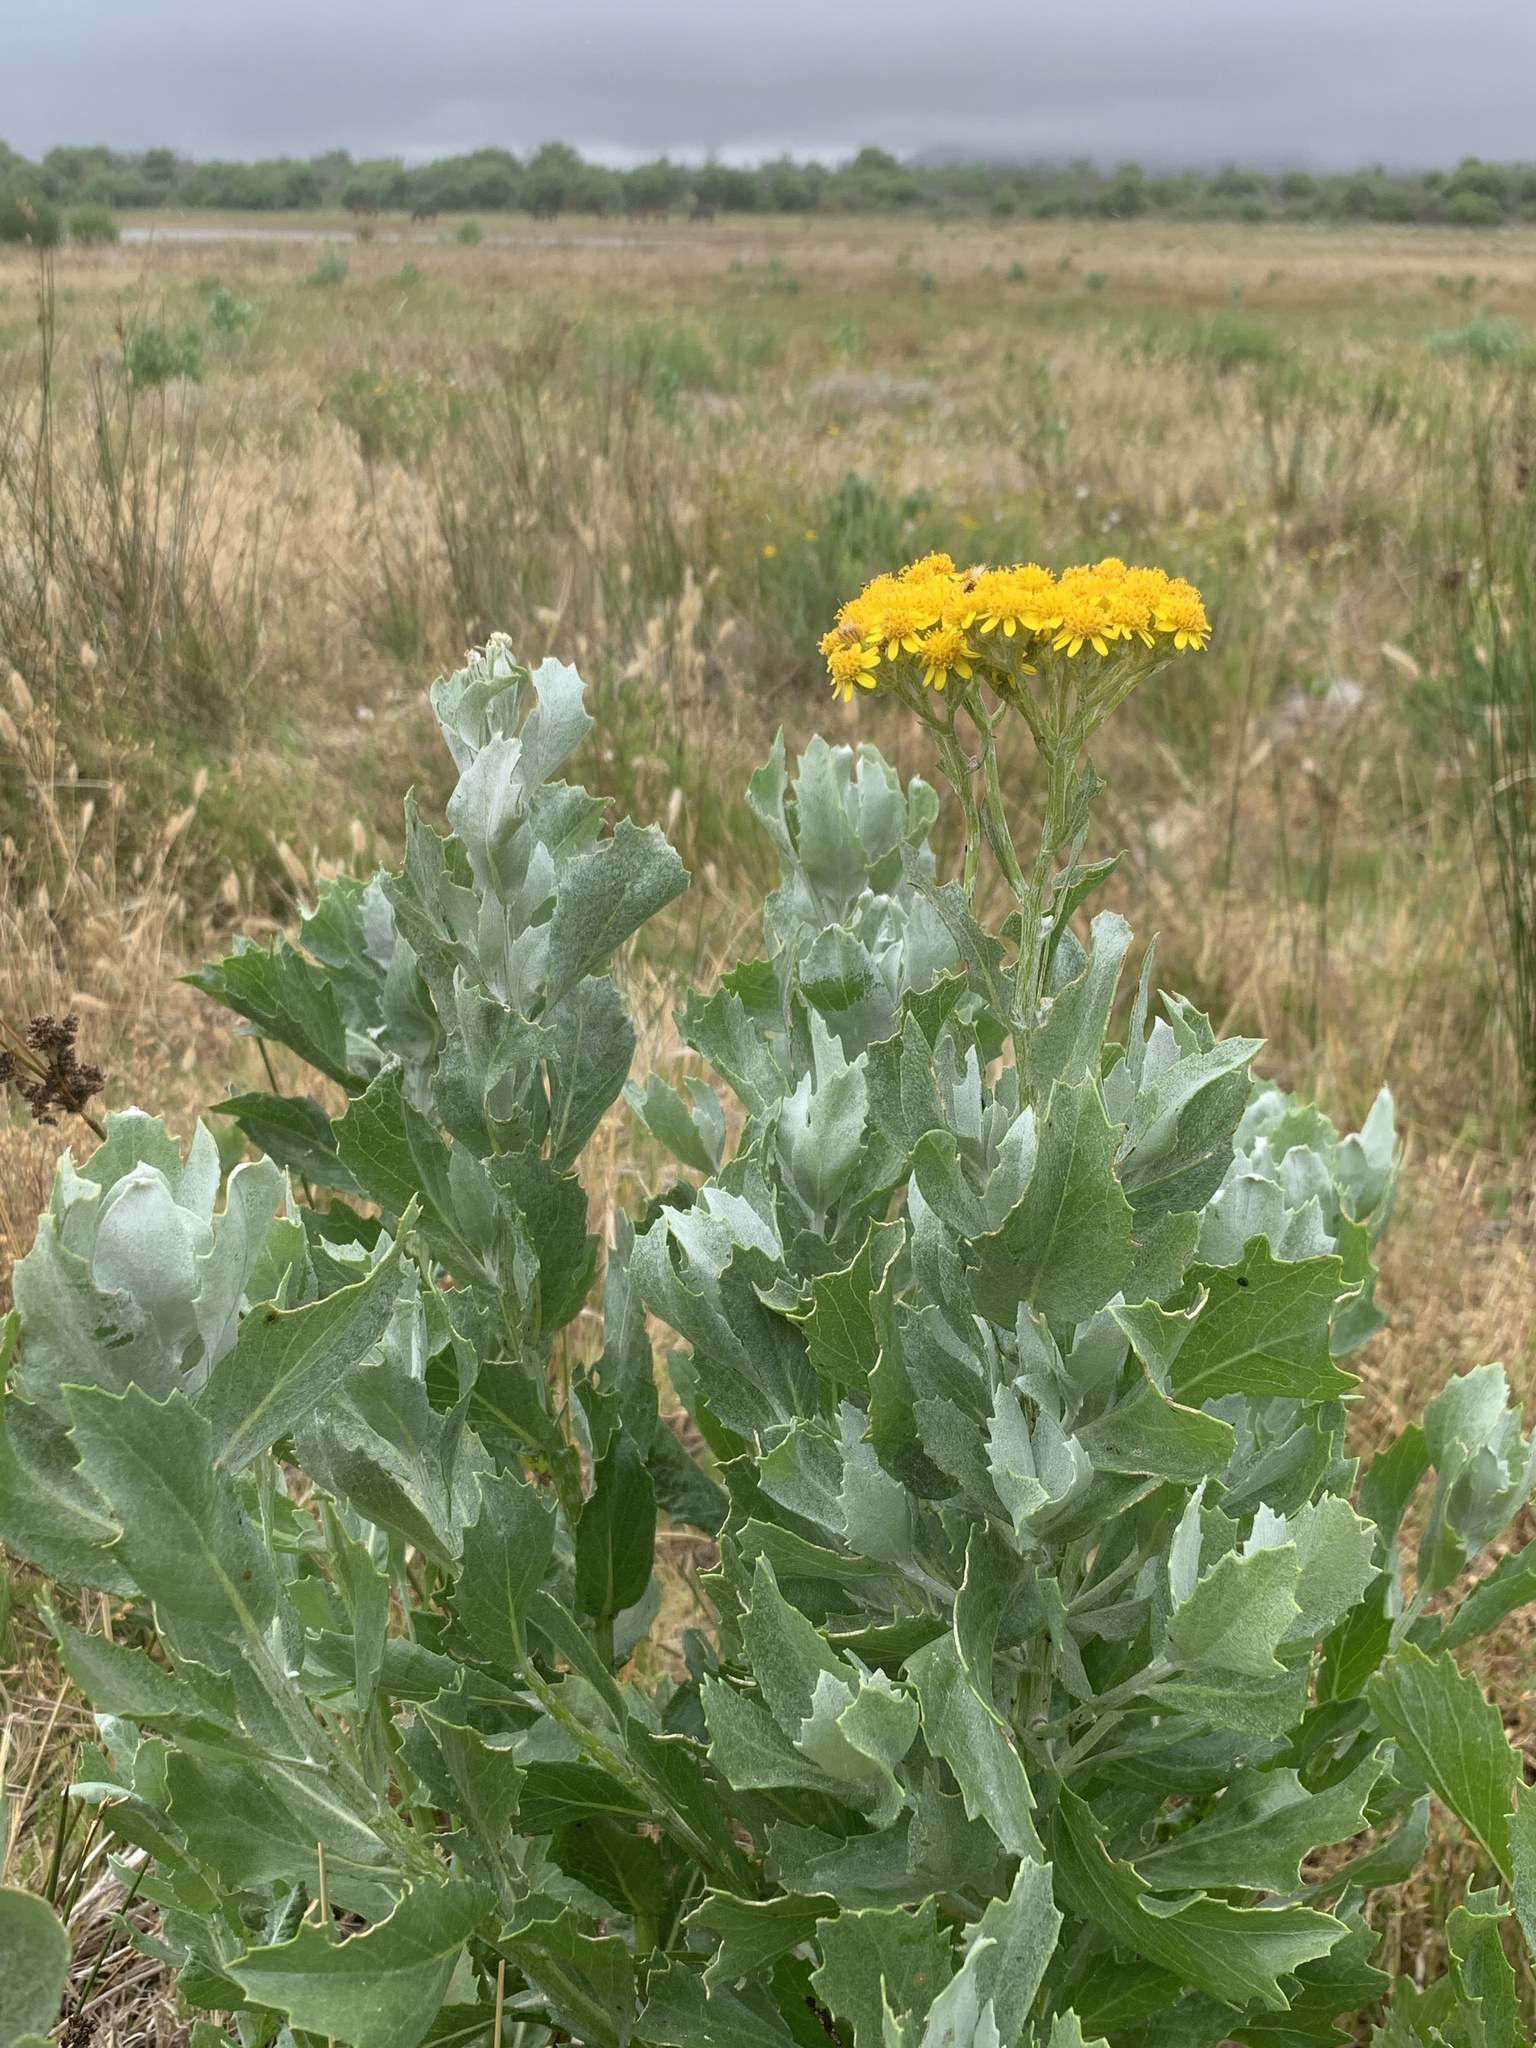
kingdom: Plantae
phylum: Tracheophyta
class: Magnoliopsida
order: Asterales
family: Asteraceae
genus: Senecio
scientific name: Senecio halimifolius
